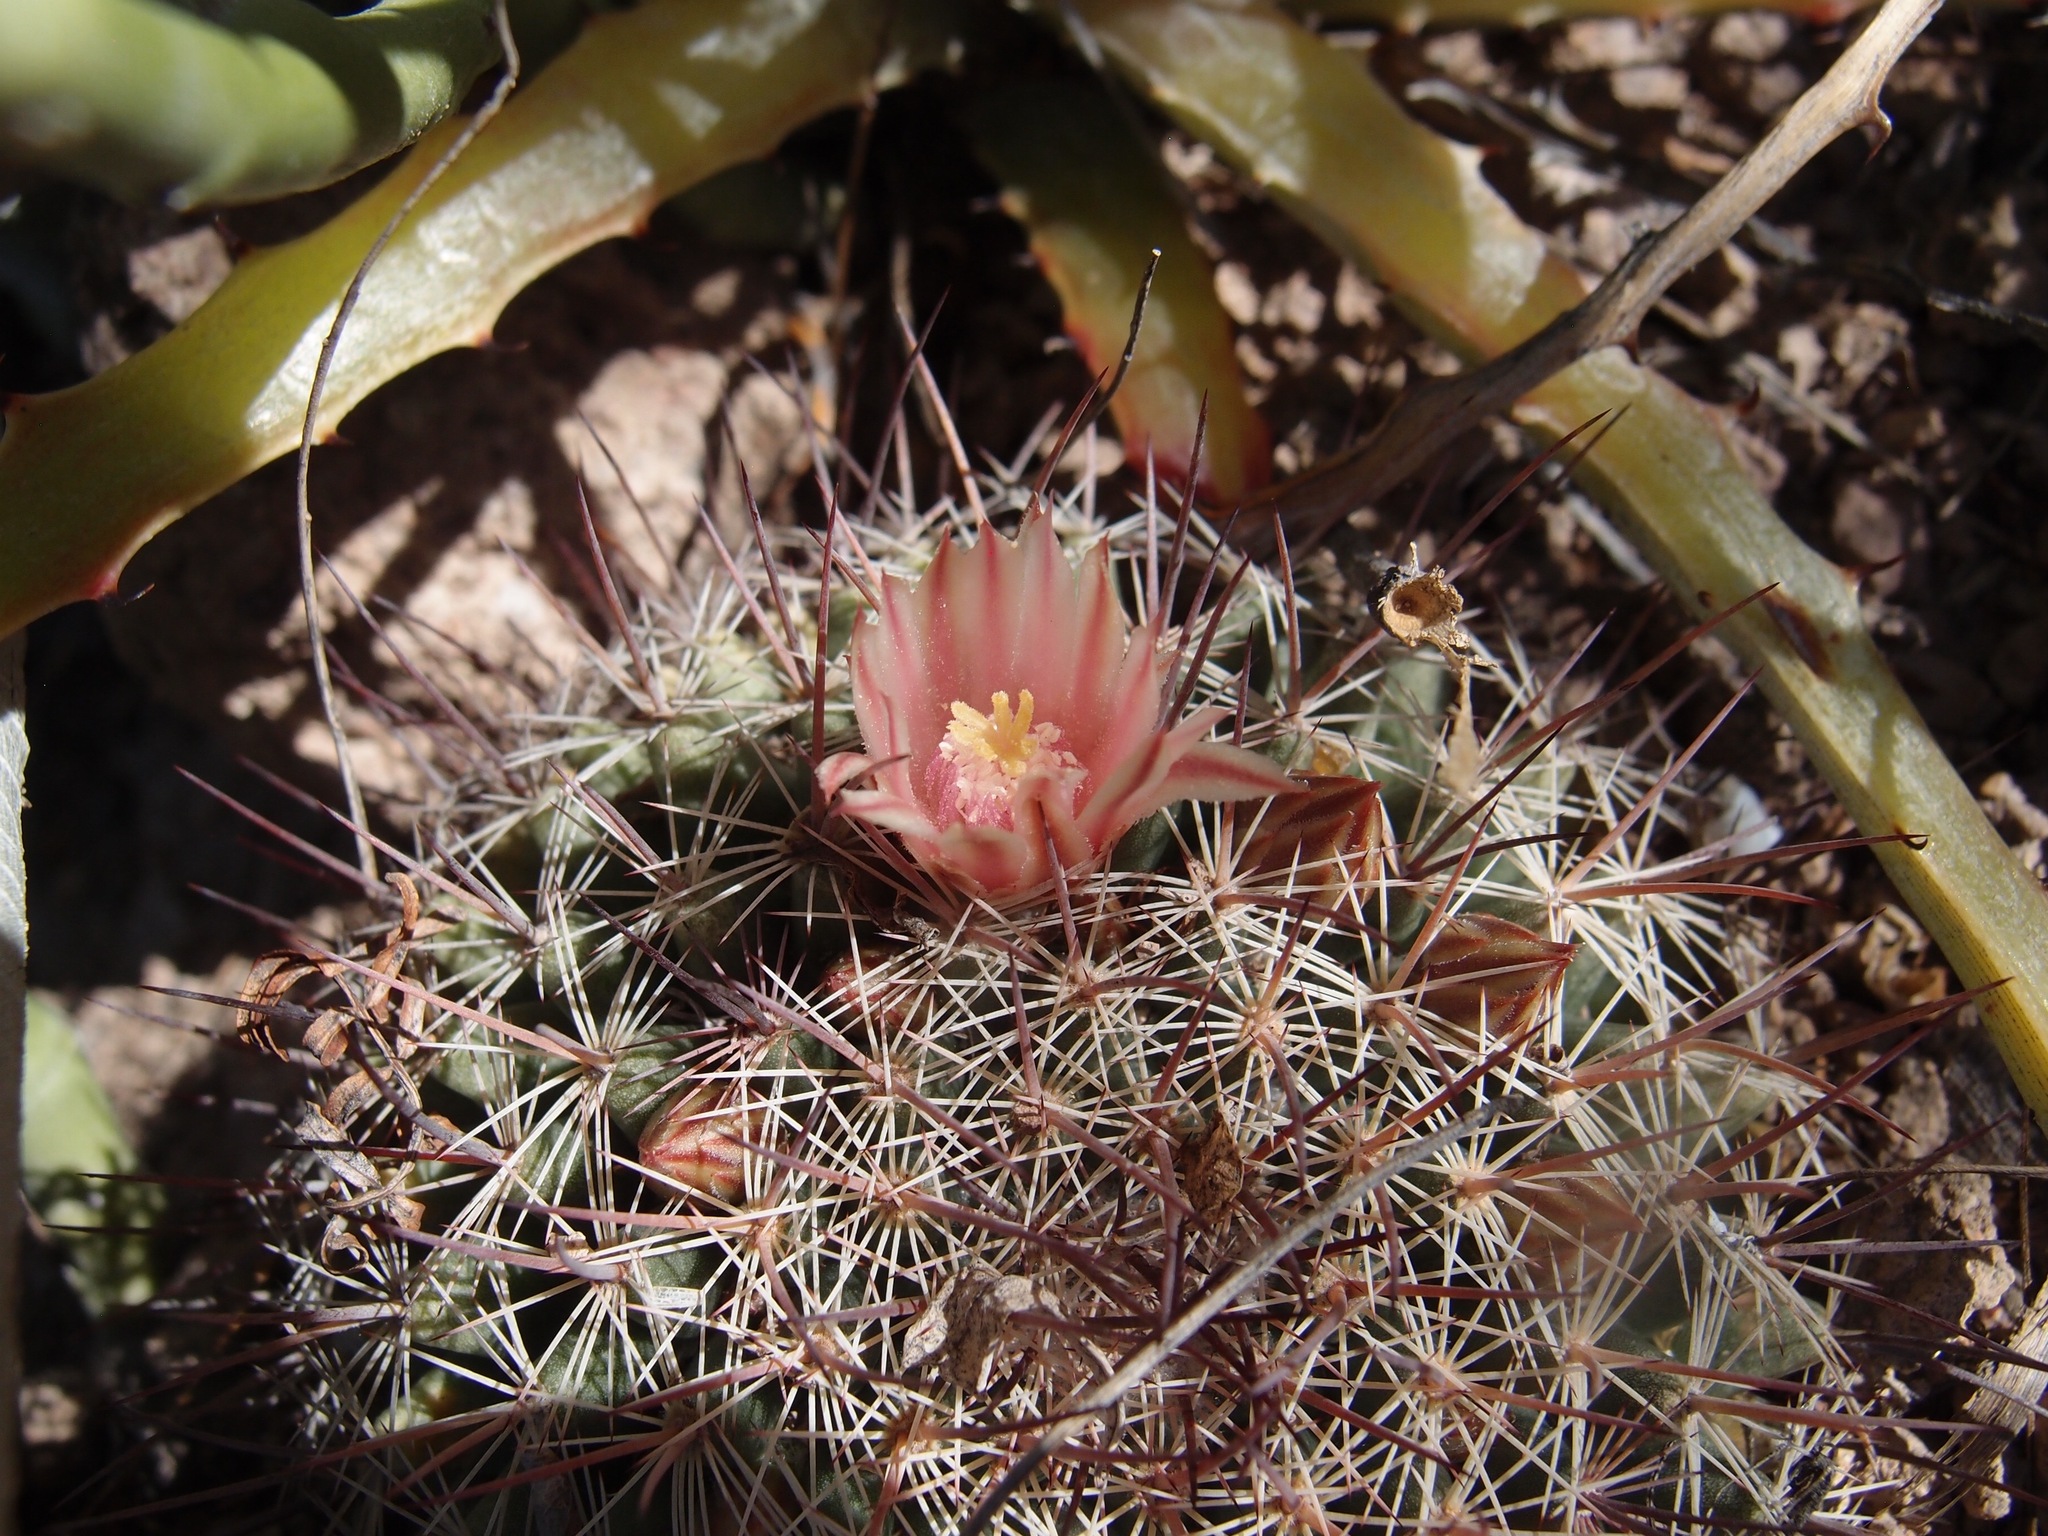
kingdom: Plantae
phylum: Tracheophyta
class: Magnoliopsida
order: Caryophyllales
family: Cactaceae
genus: Mammillaria
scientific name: Mammillaria johnstonii
